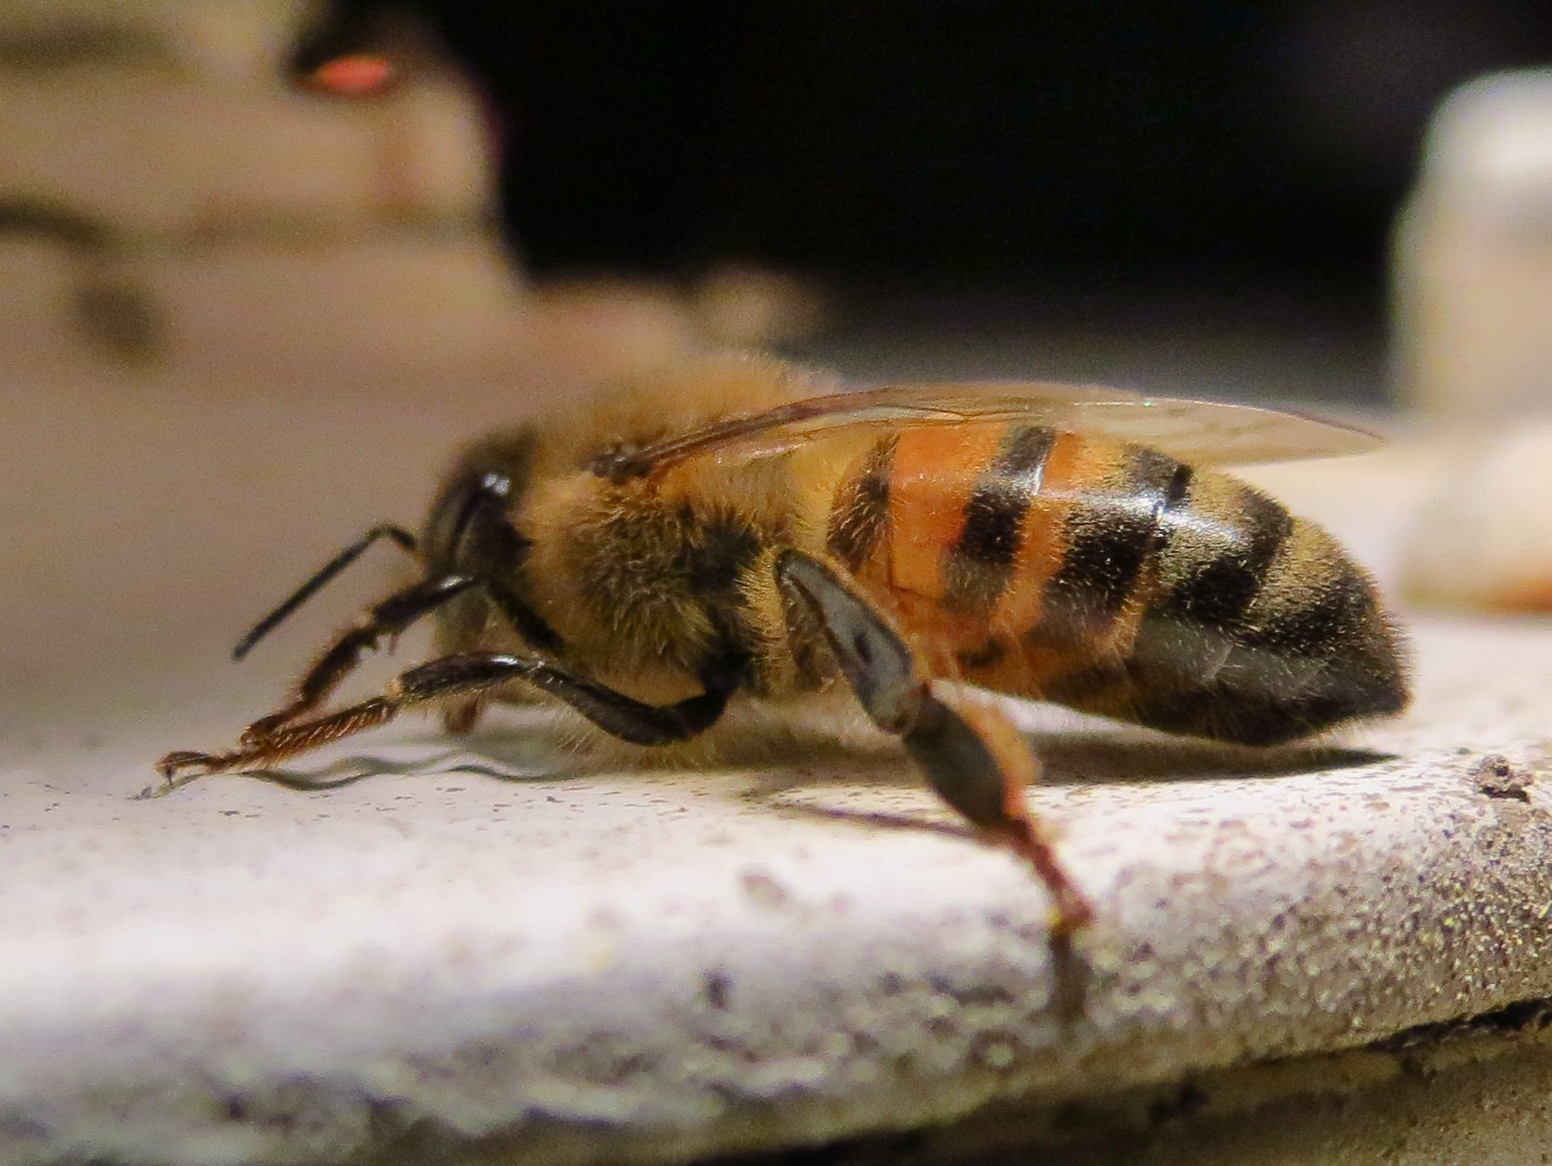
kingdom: Animalia
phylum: Arthropoda
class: Insecta
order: Hymenoptera
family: Apidae
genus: Apis
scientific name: Apis mellifera
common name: Honey bee
